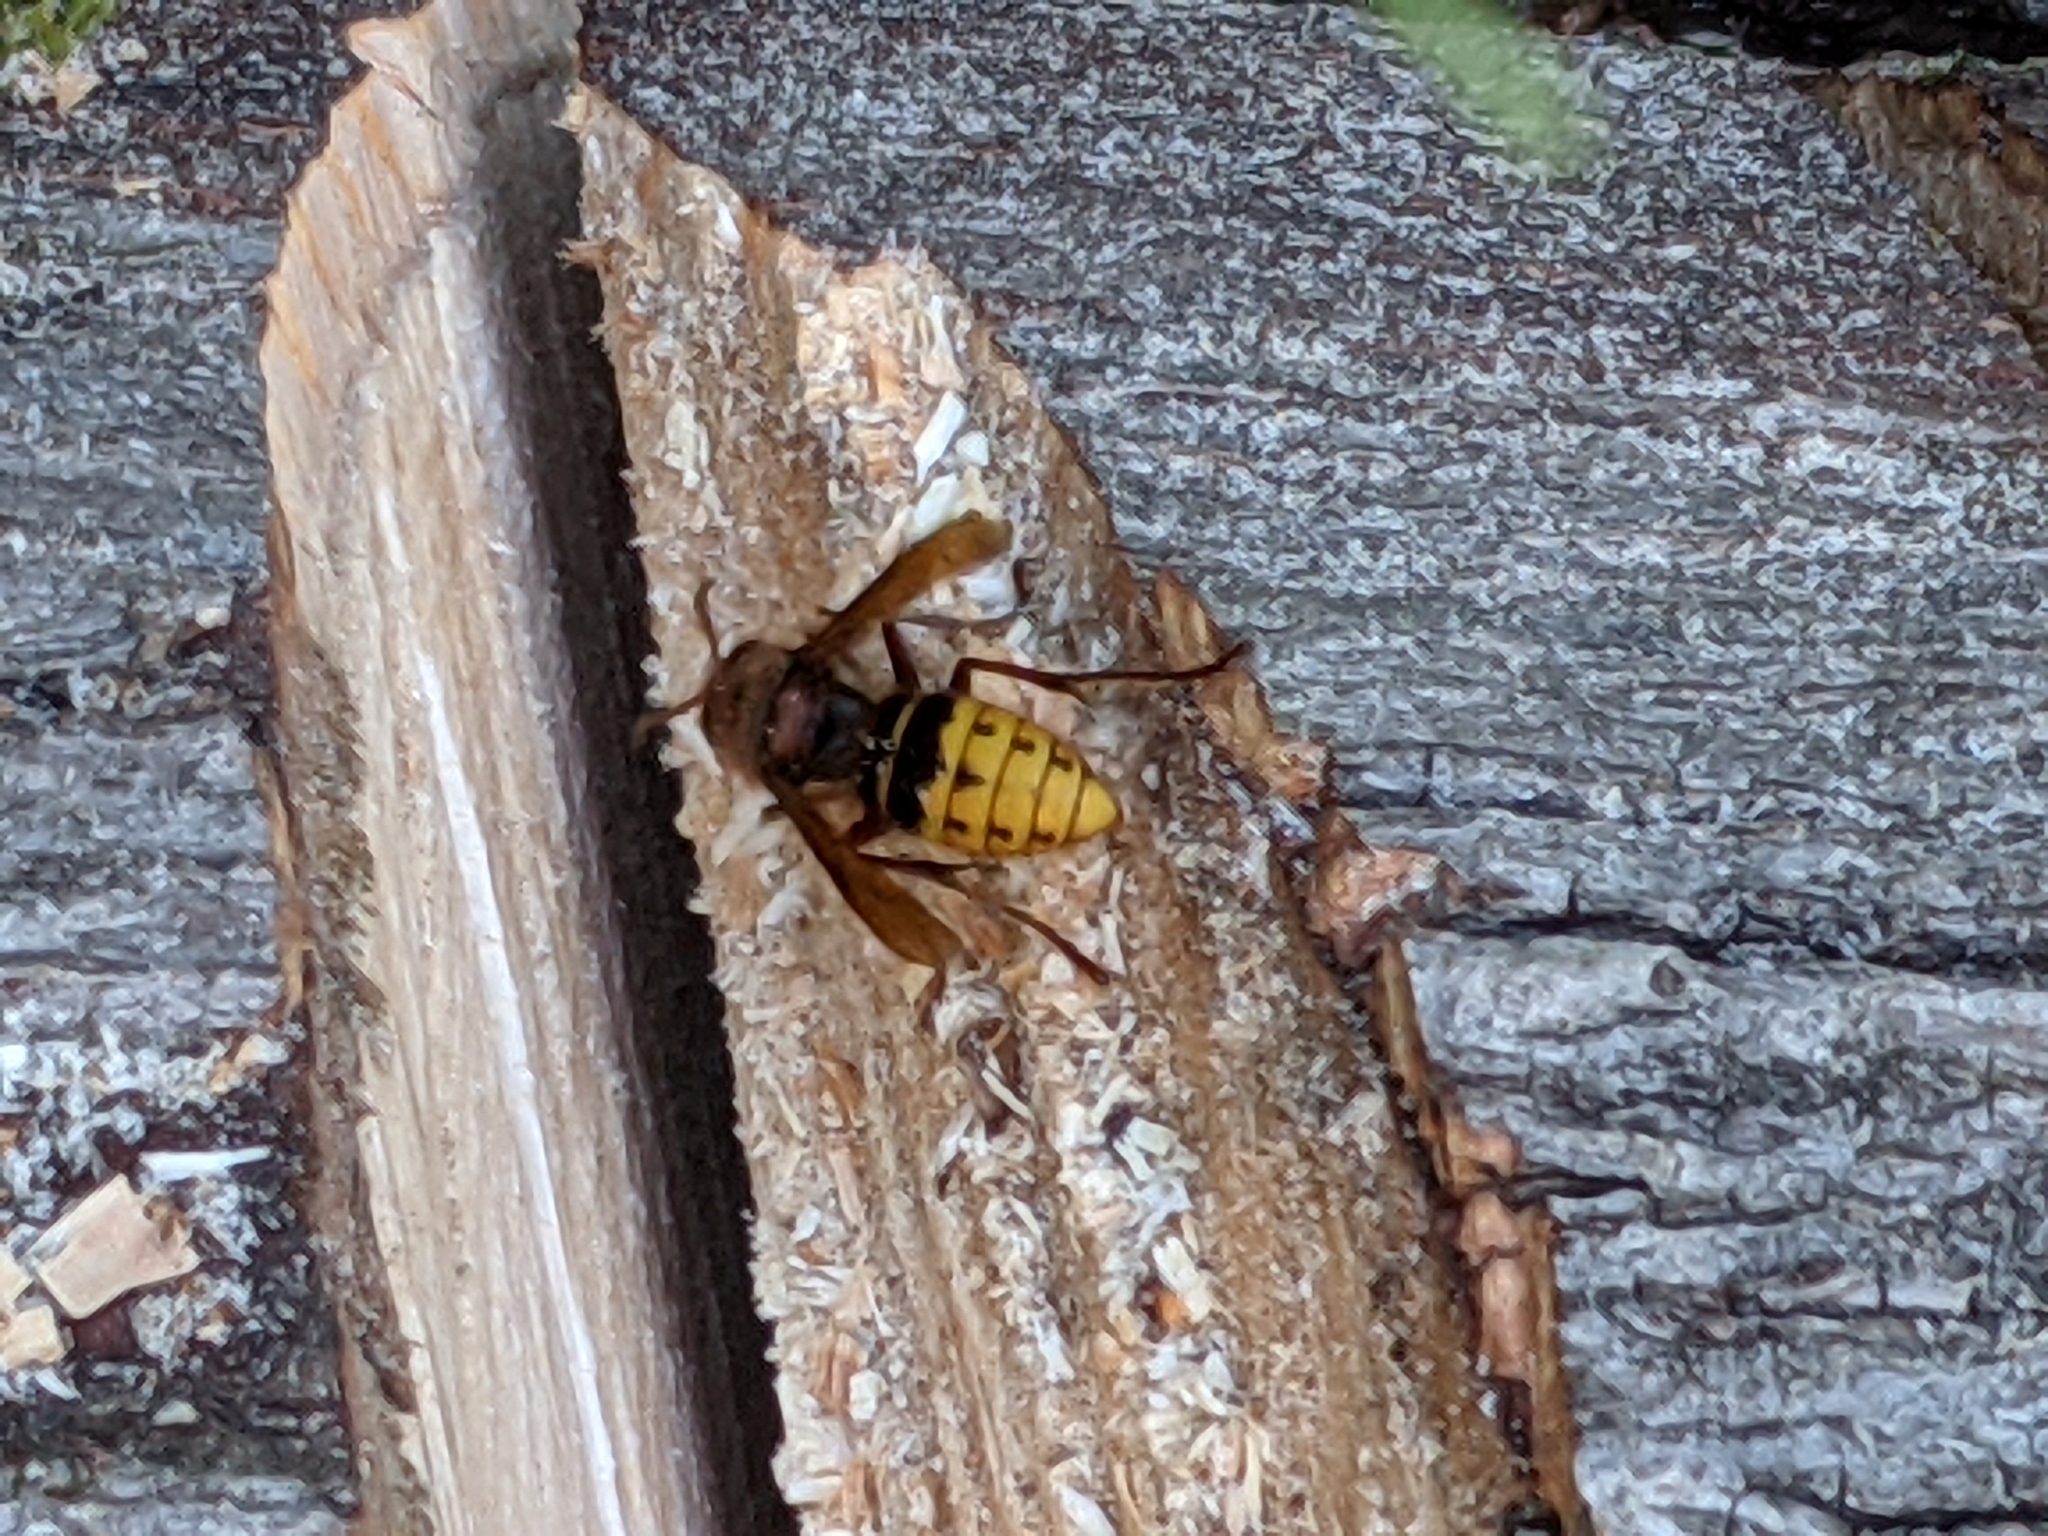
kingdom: Animalia
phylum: Arthropoda
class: Insecta
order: Hymenoptera
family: Vespidae
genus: Vespa
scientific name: Vespa crabro
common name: Hornet
